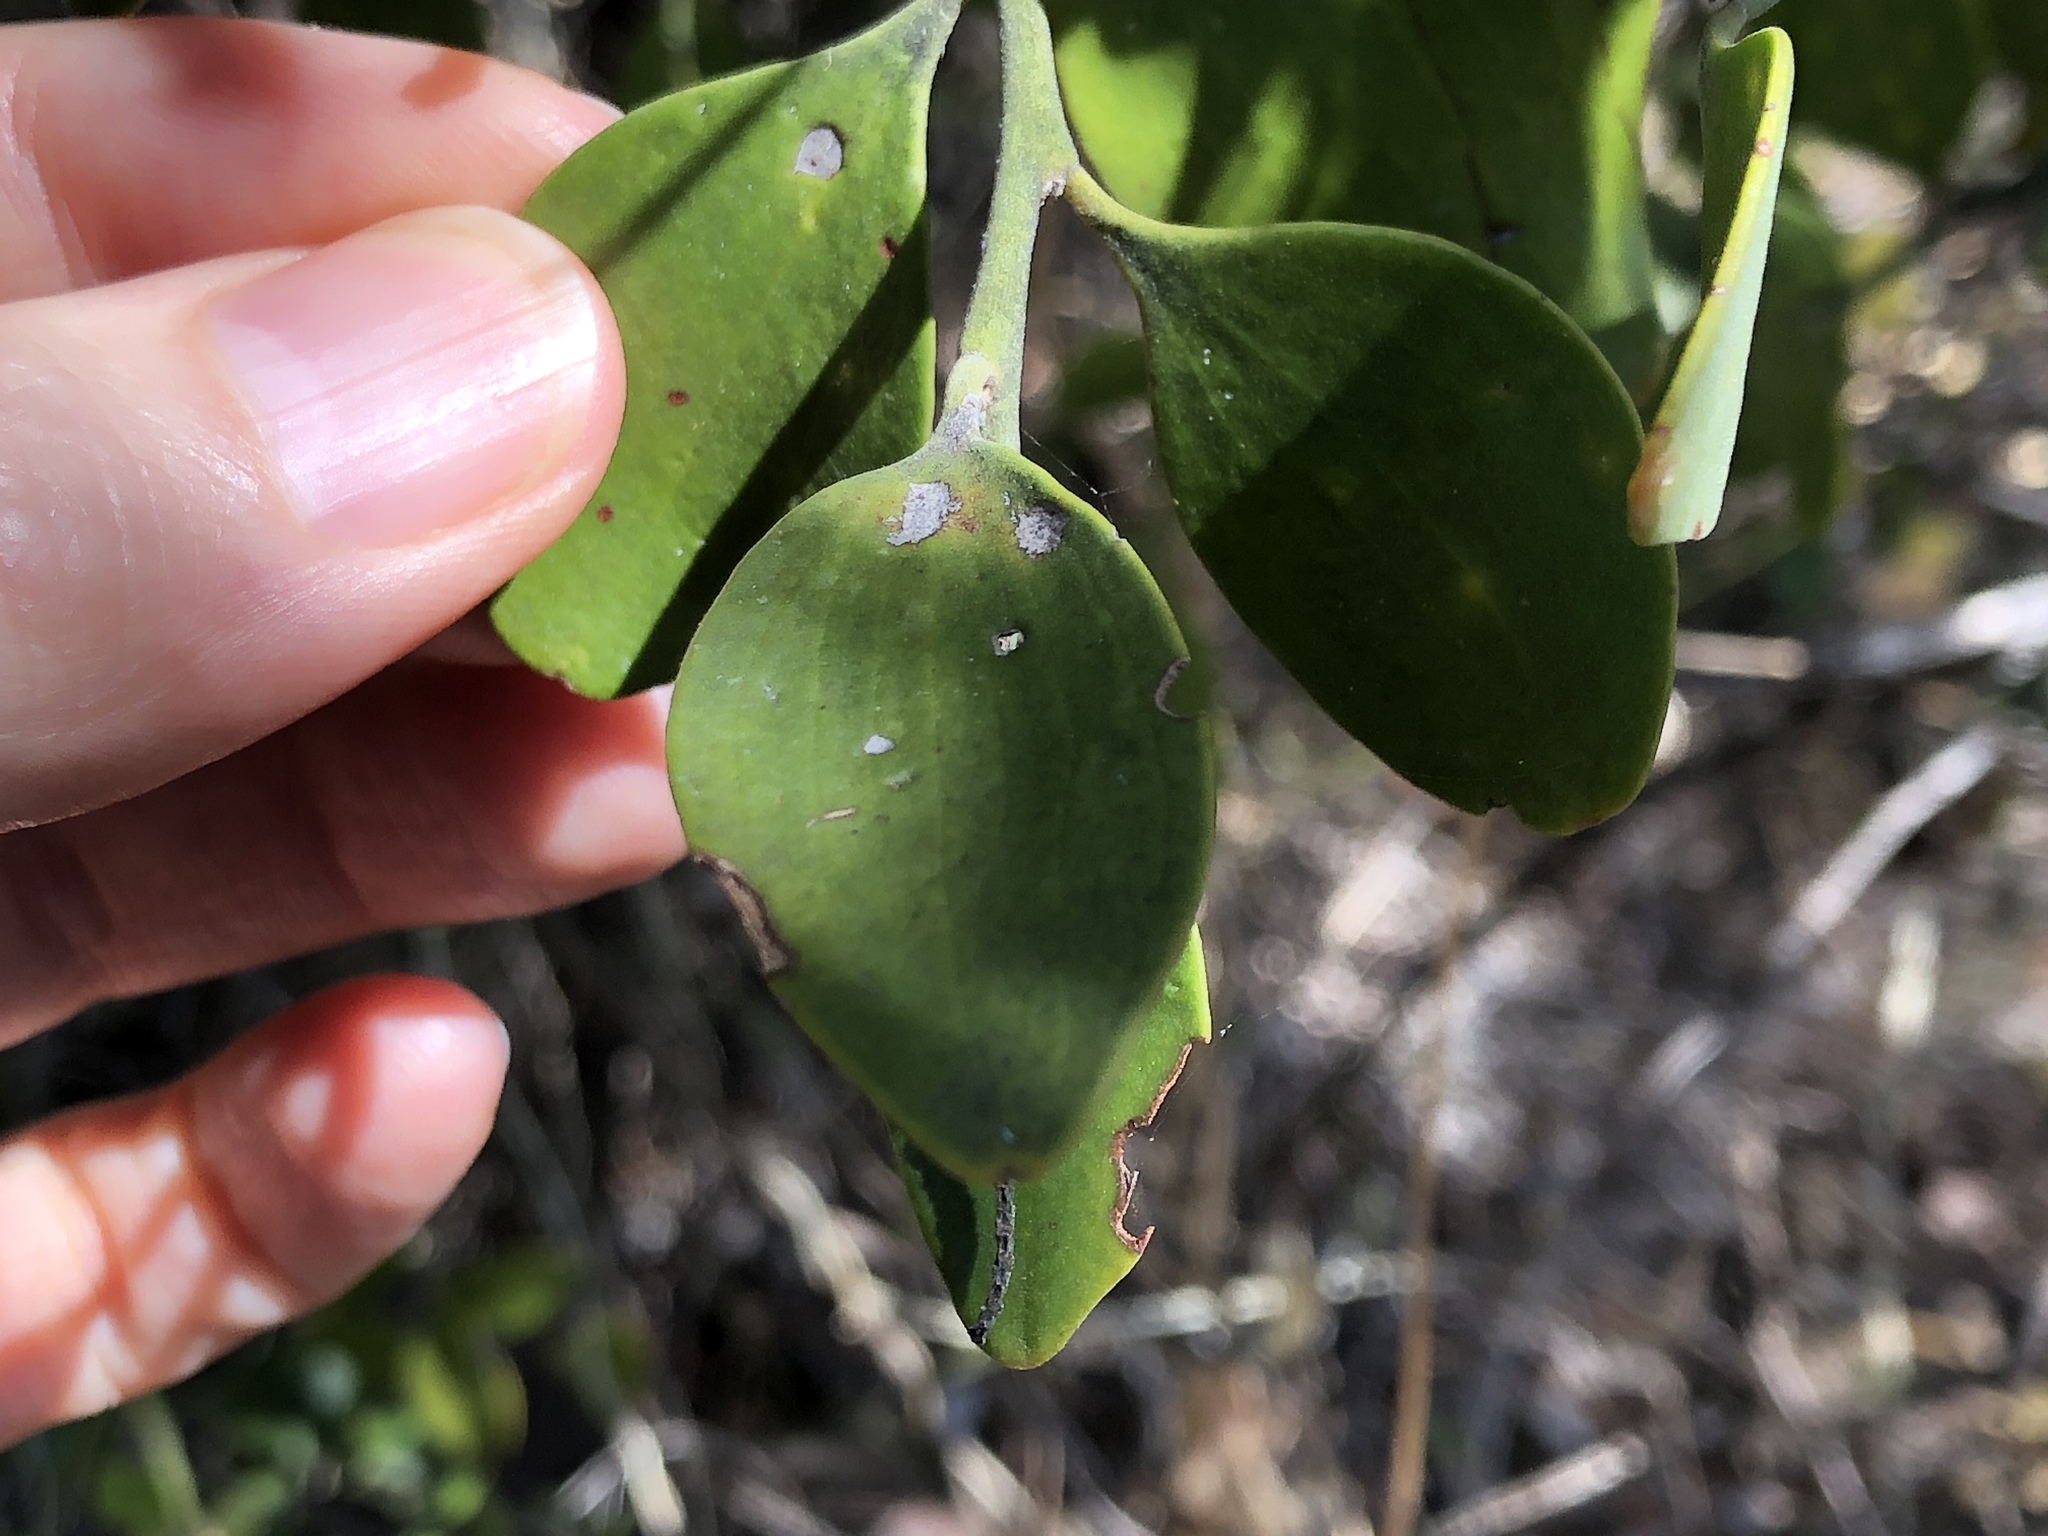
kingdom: Plantae
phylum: Tracheophyta
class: Magnoliopsida
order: Santalales
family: Santalaceae
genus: Exocarpos
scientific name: Exocarpos latifolius
